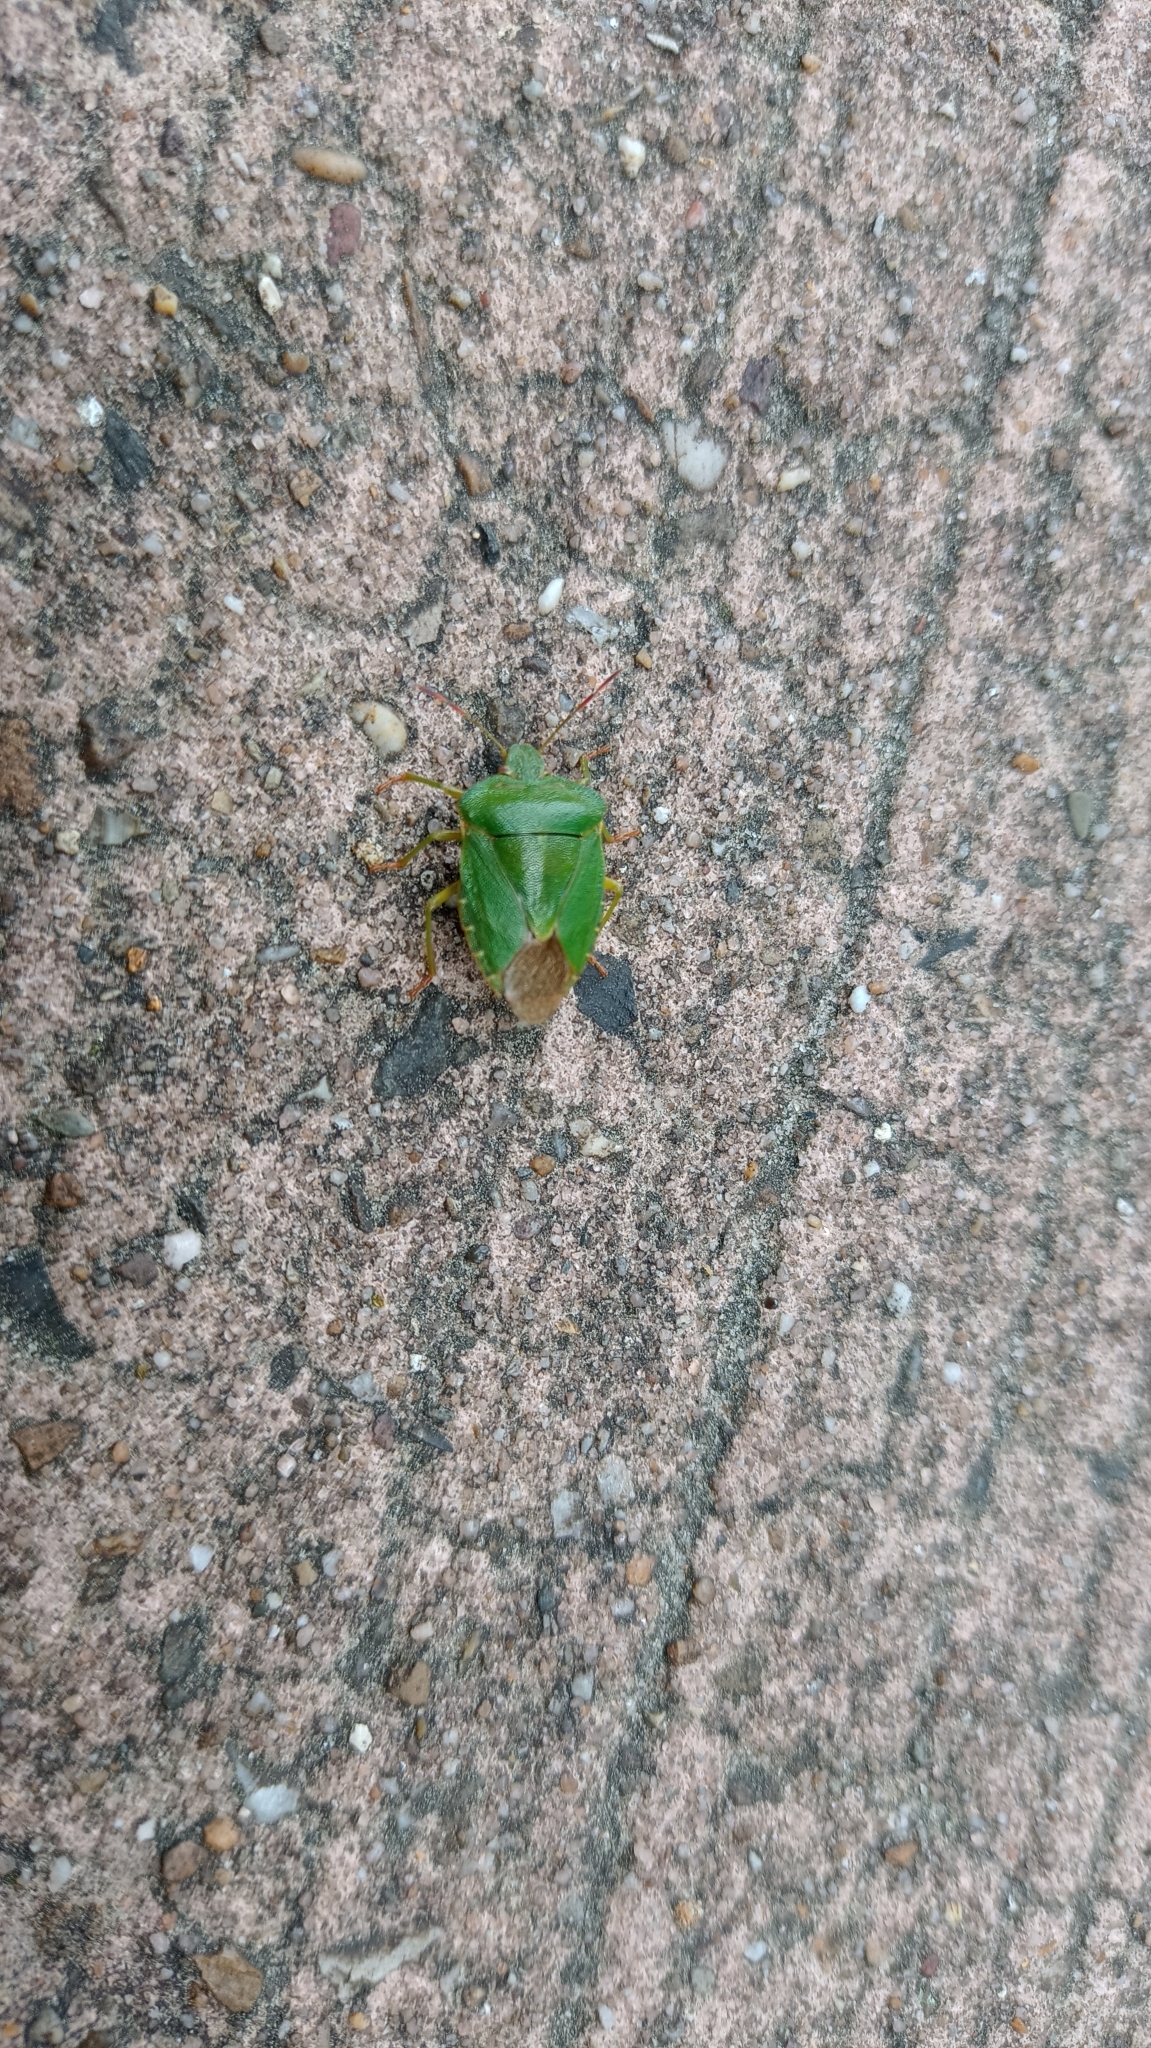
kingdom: Animalia
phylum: Arthropoda
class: Insecta
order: Hemiptera
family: Pentatomidae
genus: Palomena
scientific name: Palomena prasina
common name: Green shieldbug
